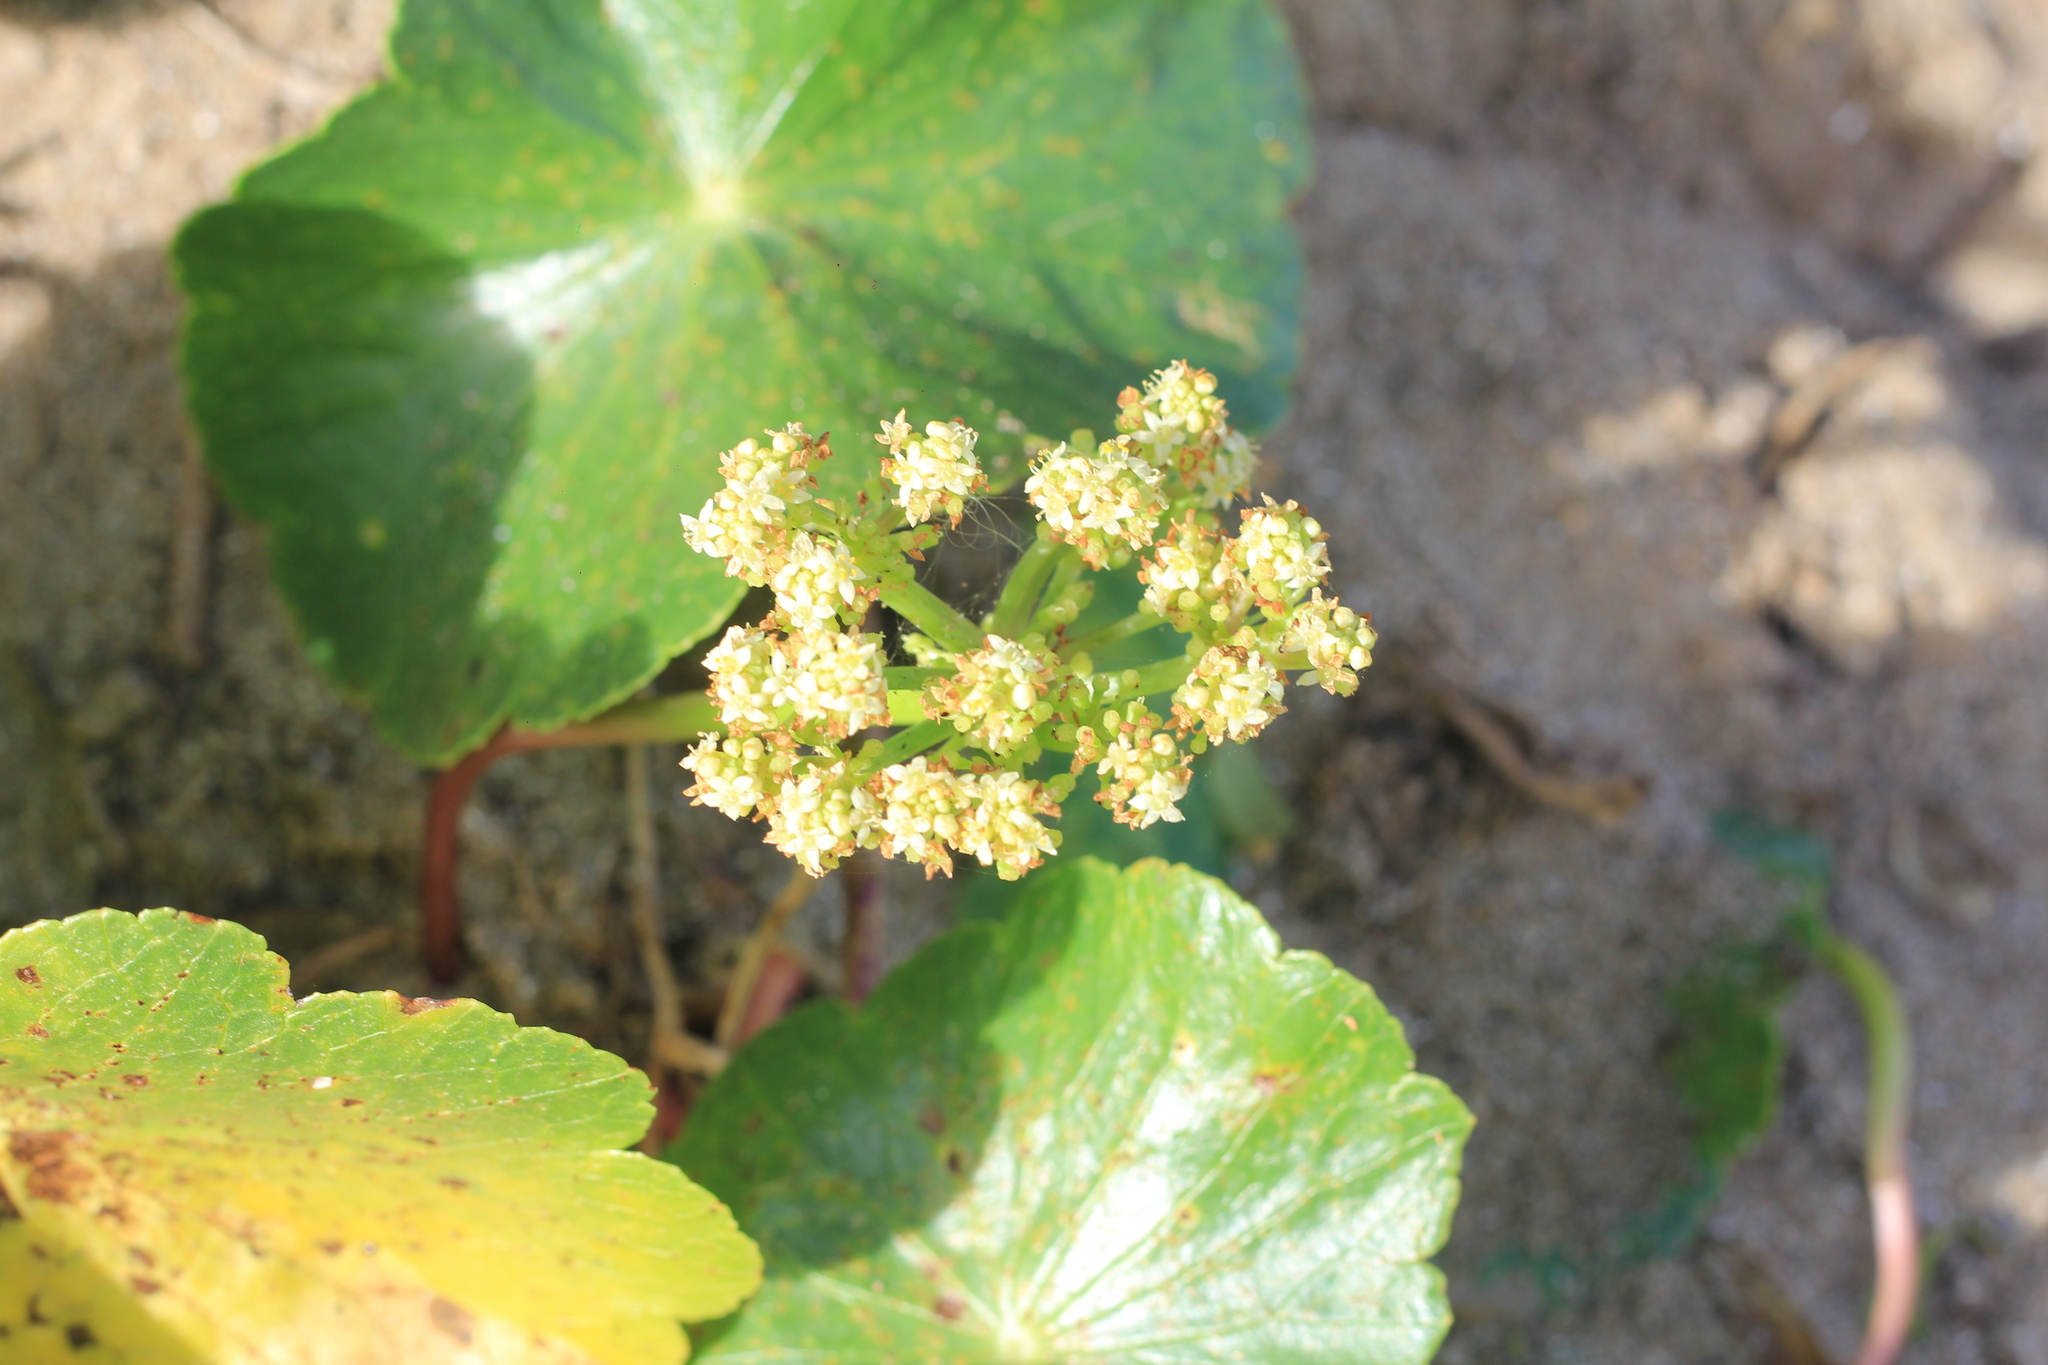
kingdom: Plantae
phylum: Tracheophyta
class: Magnoliopsida
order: Apiales
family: Araliaceae
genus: Hydrocotyle
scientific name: Hydrocotyle bonariensis
